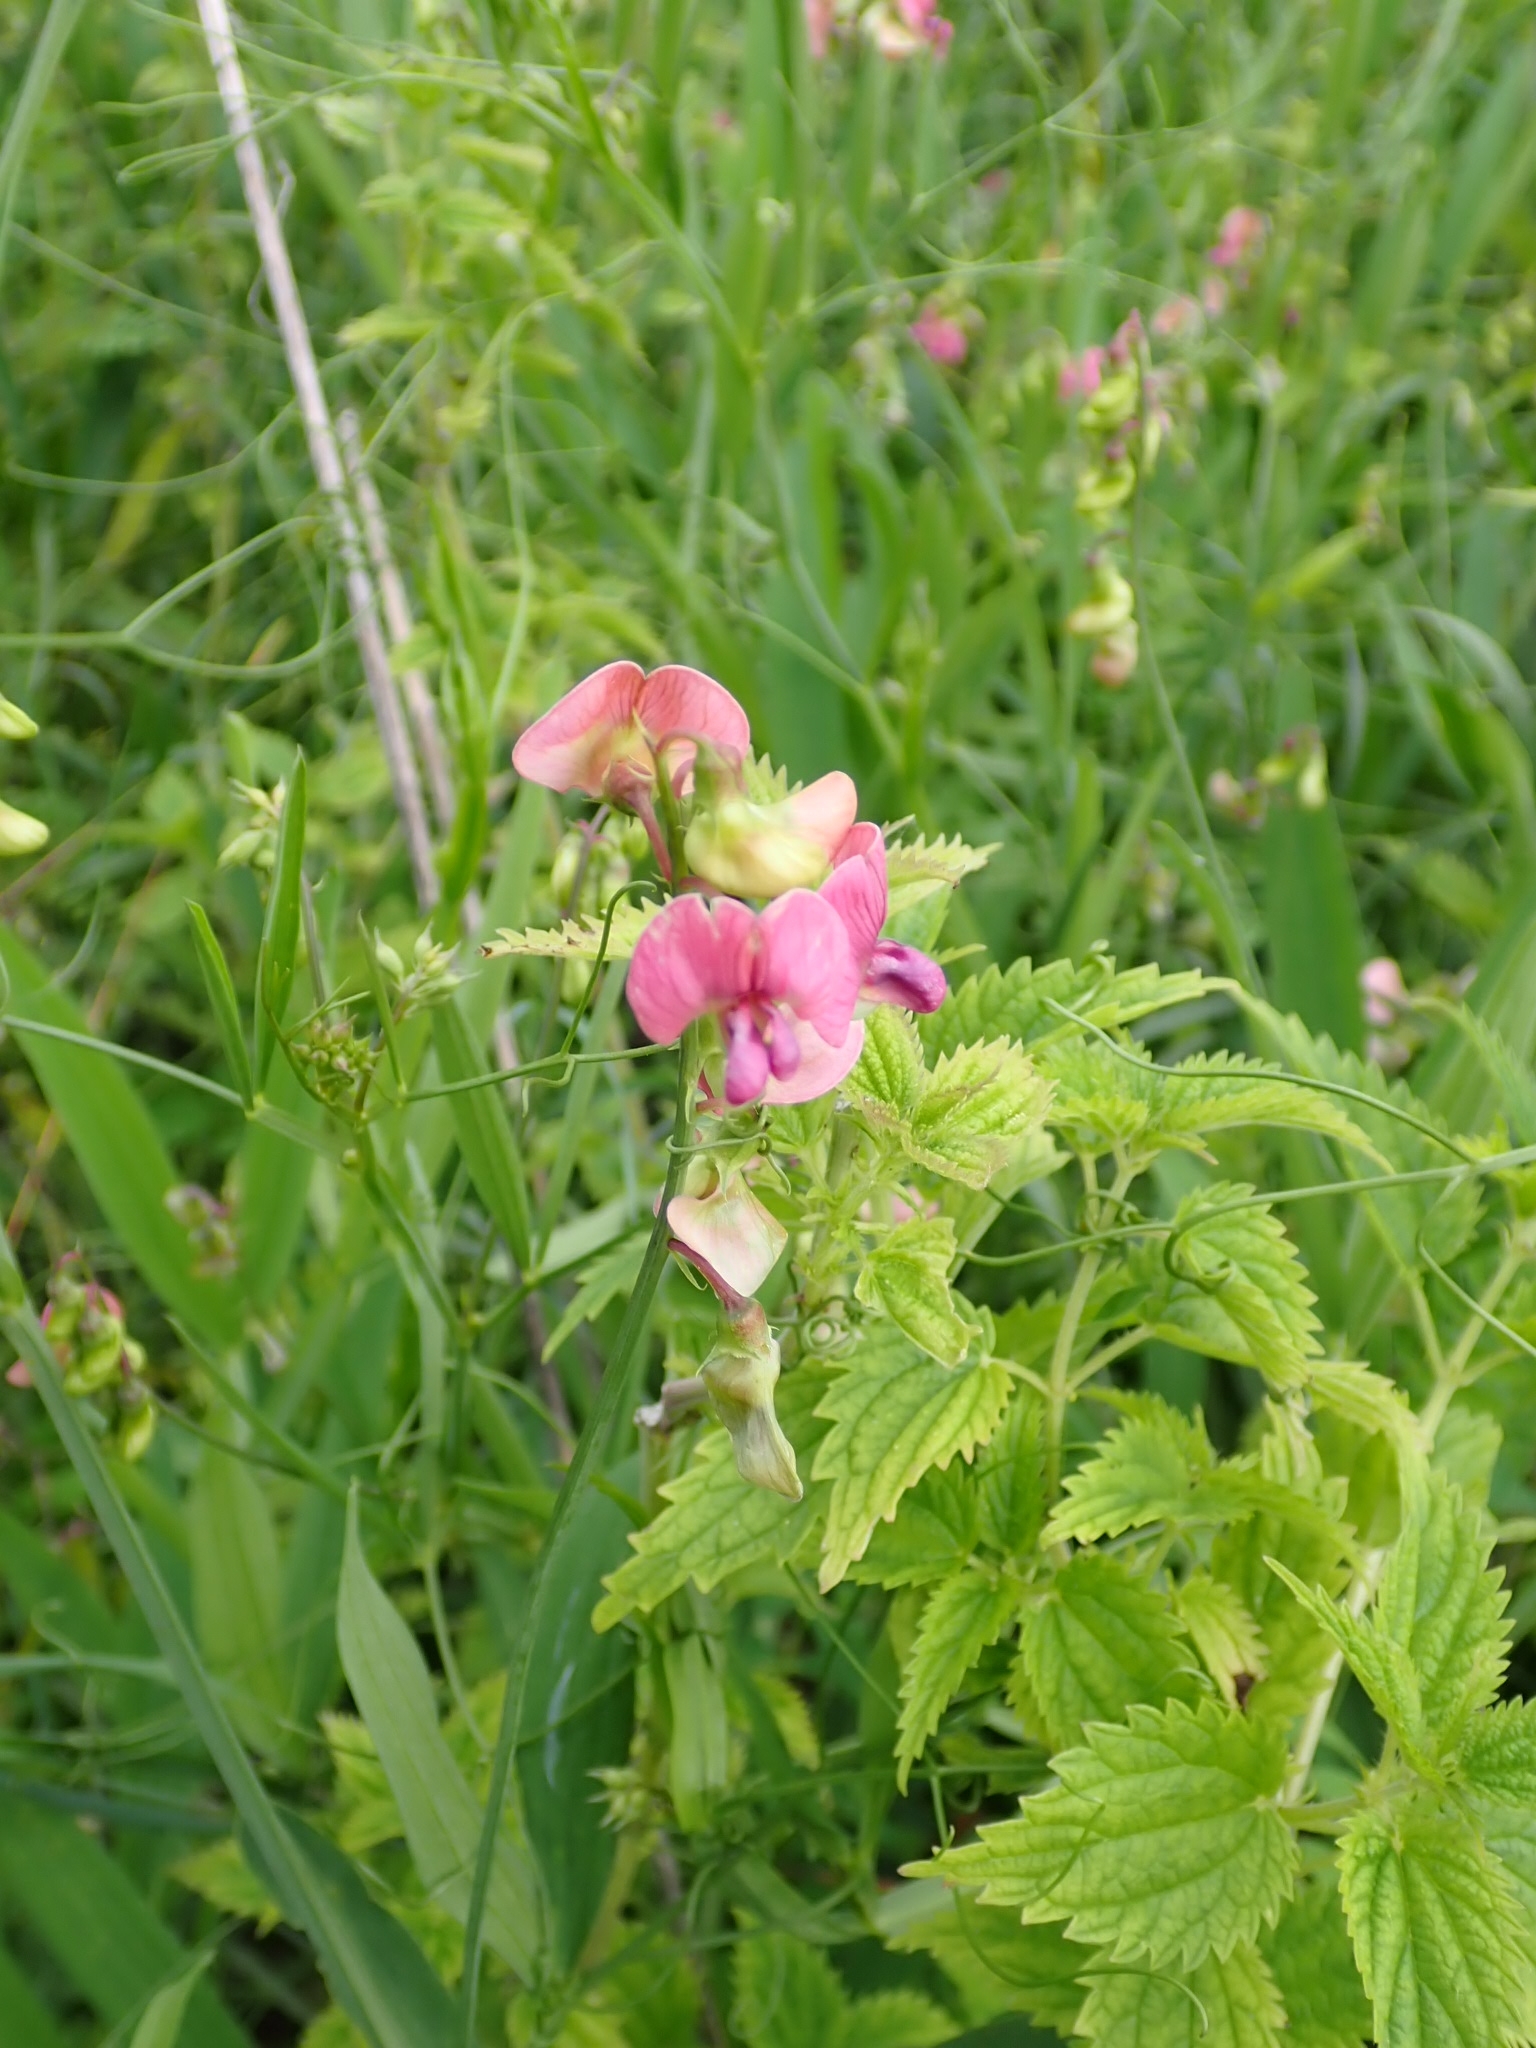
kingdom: Plantae
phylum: Tracheophyta
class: Magnoliopsida
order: Fabales
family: Fabaceae
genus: Lathyrus
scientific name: Lathyrus sylvestris
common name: Flat pea
